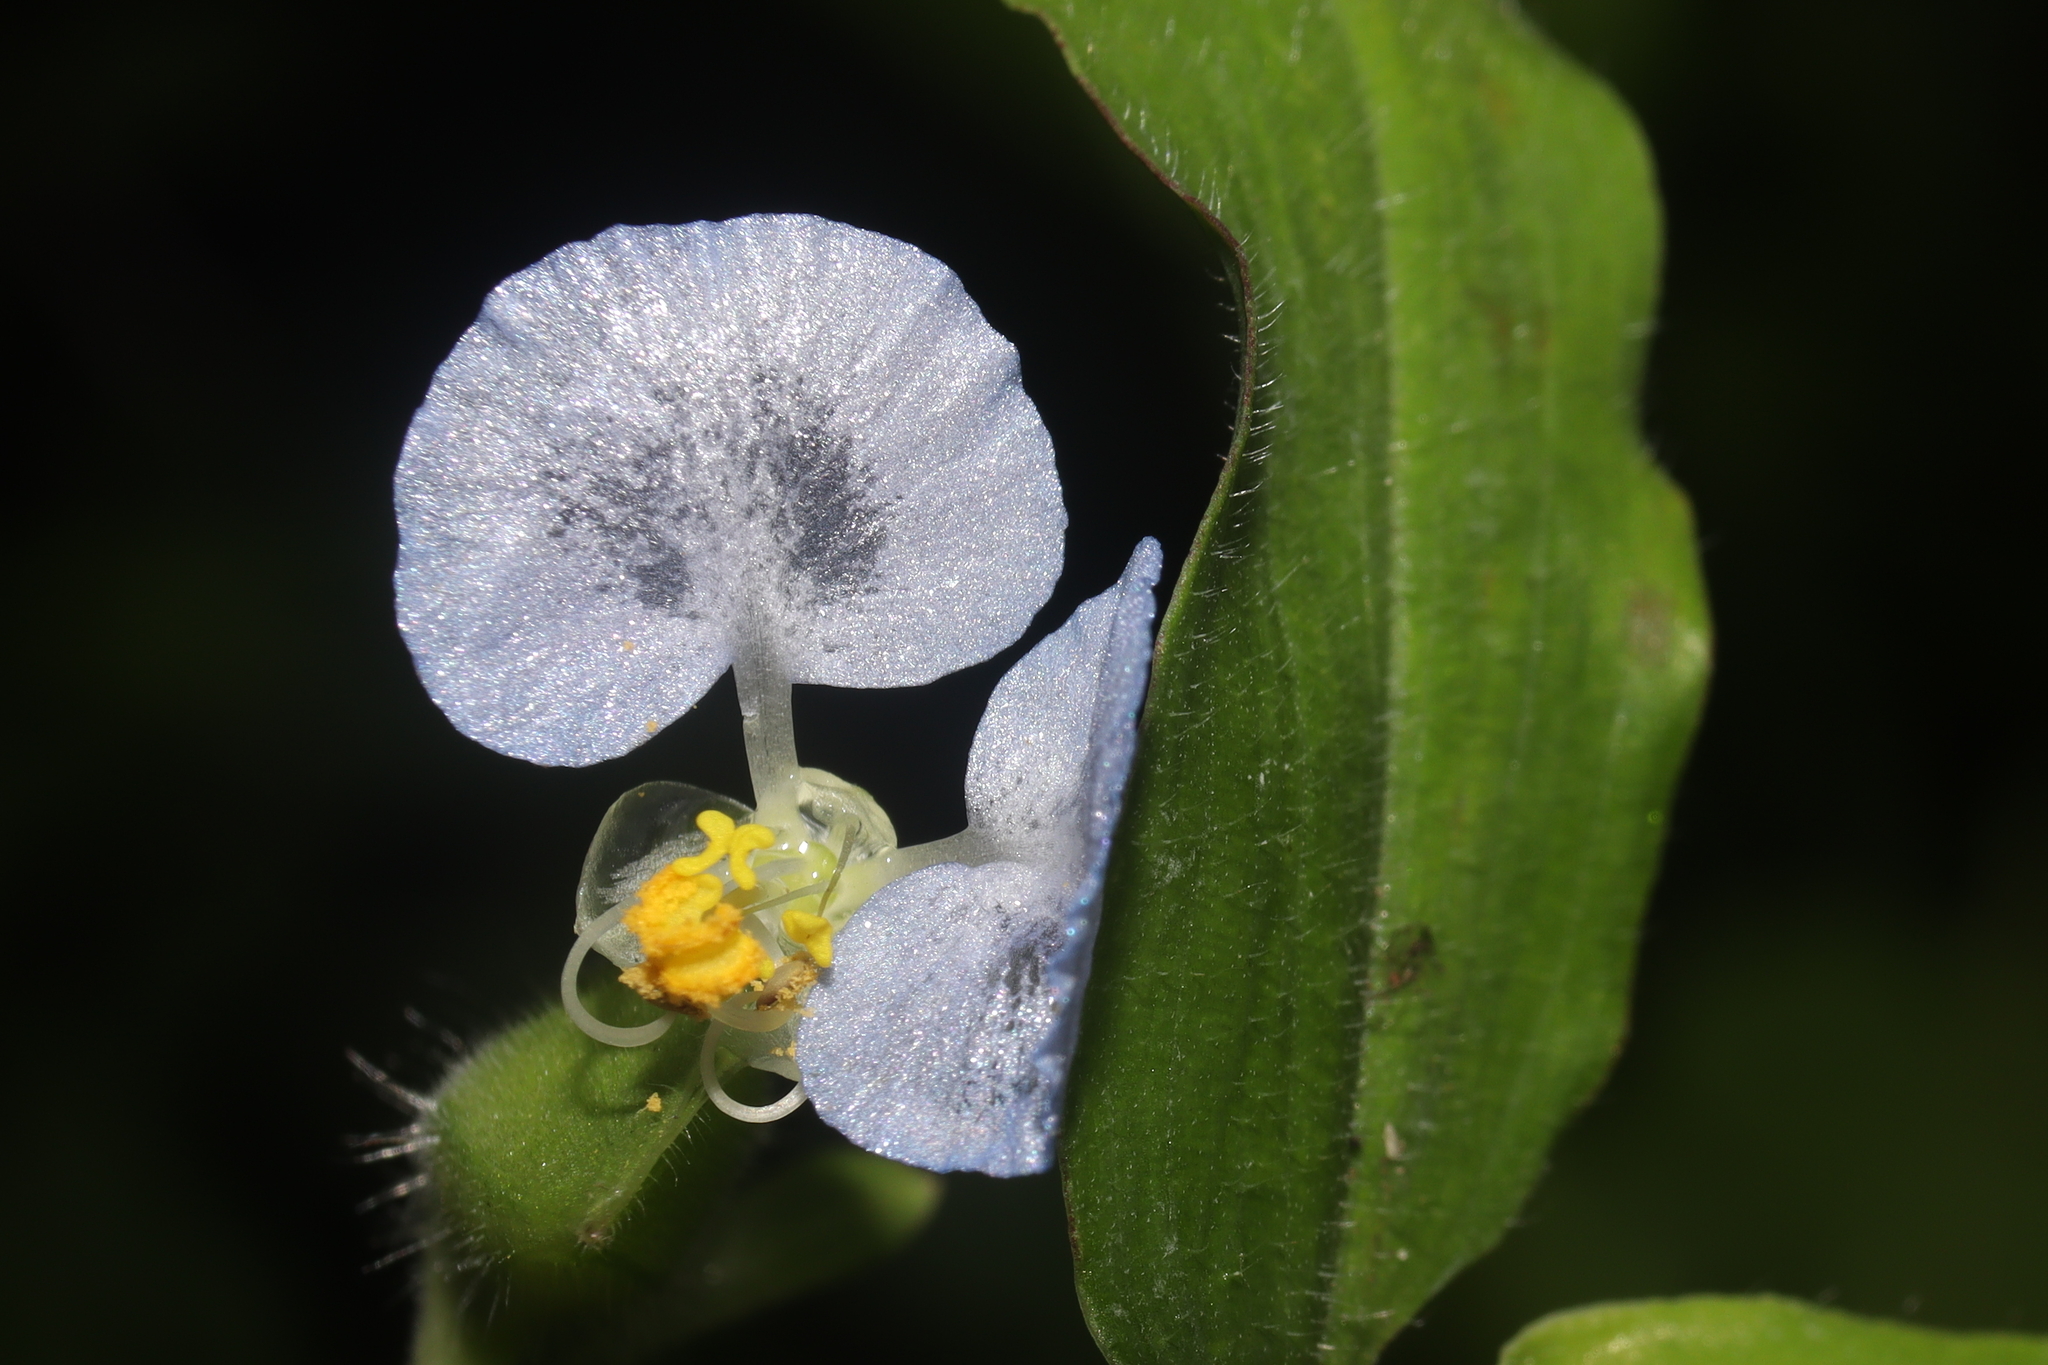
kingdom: Plantae
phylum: Tracheophyta
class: Liliopsida
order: Commelinales
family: Commelinaceae
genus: Commelina
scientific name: Commelina erecta
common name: Blousel blommetjie
